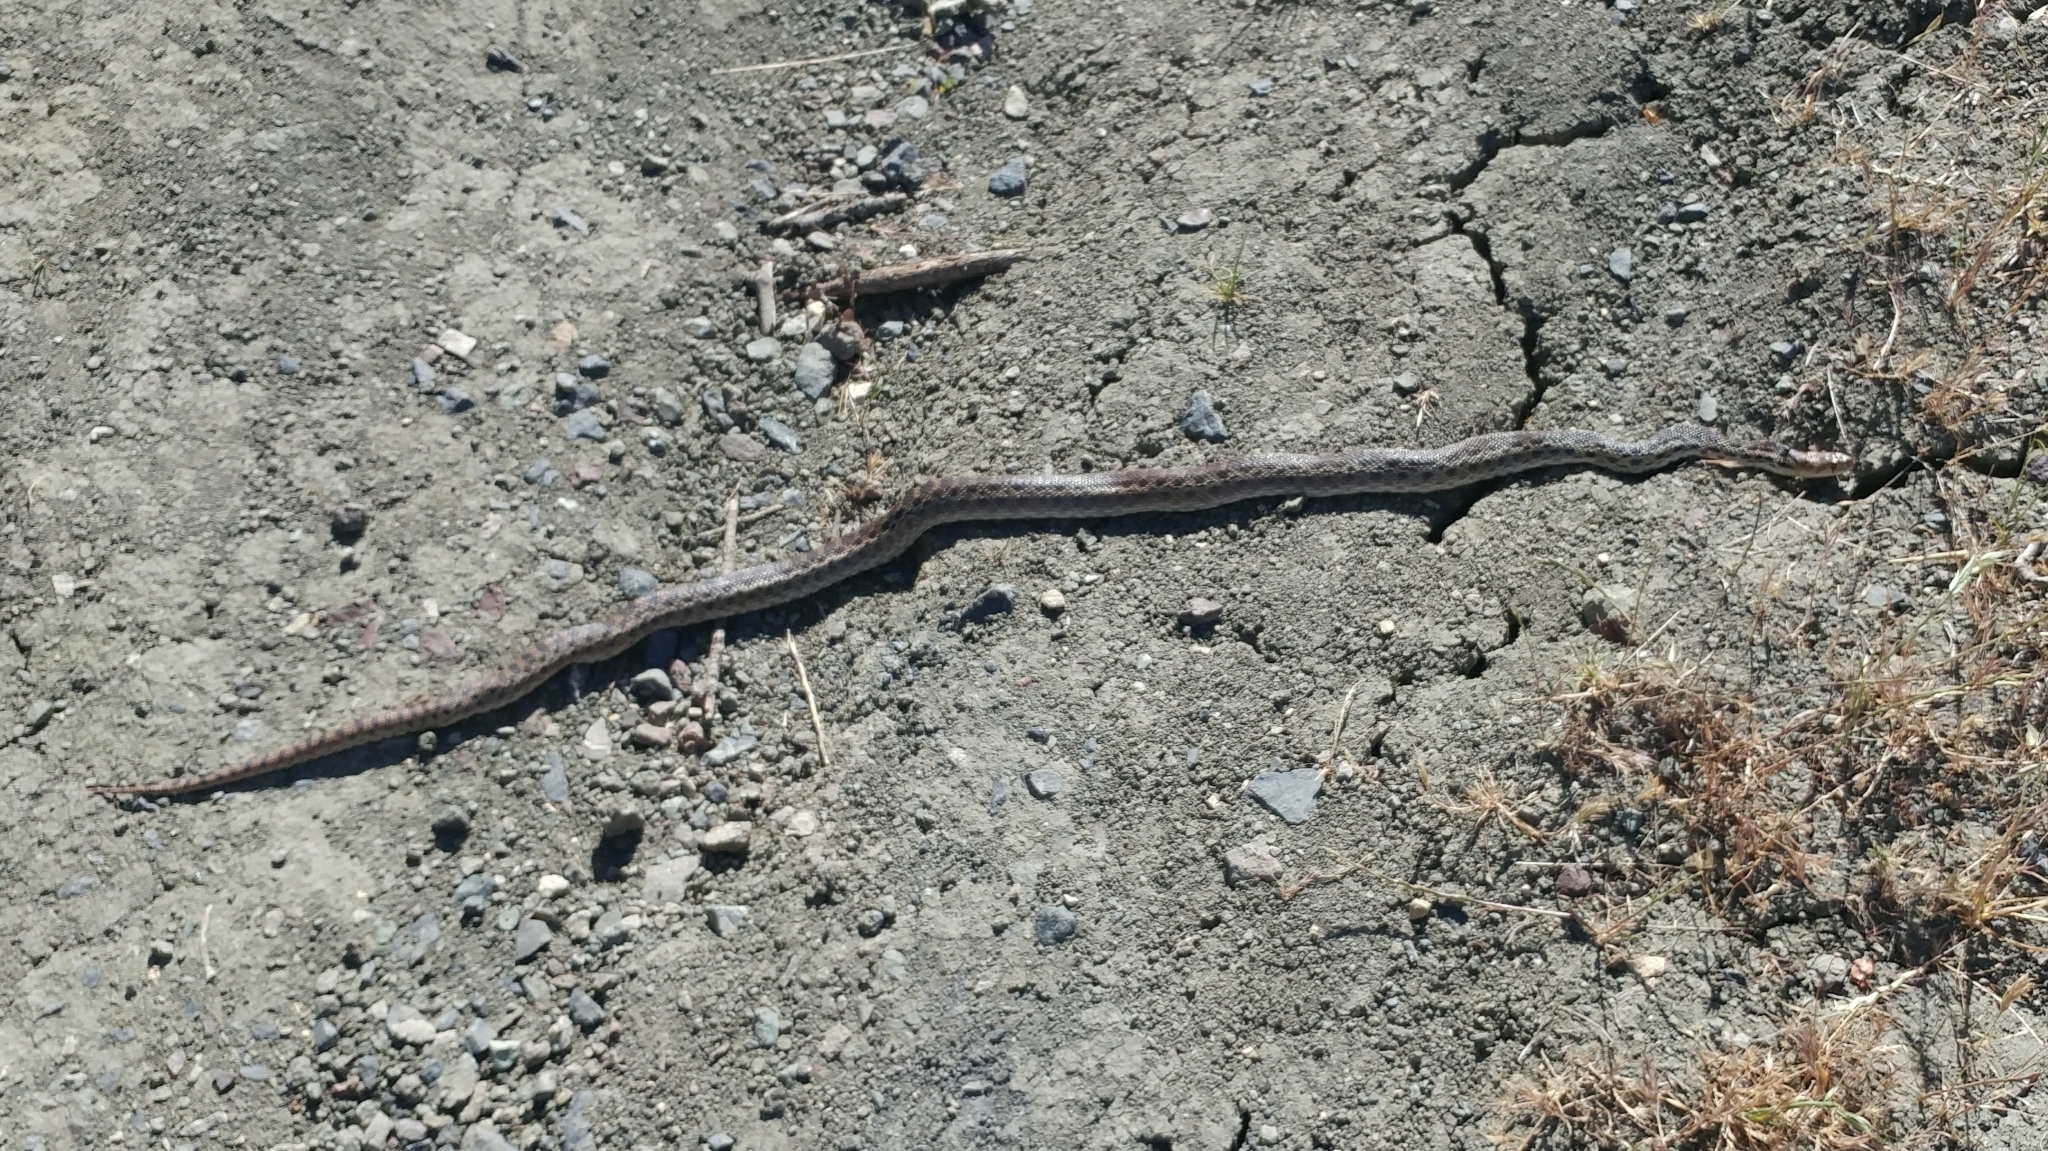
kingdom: Animalia
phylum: Chordata
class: Squamata
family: Colubridae
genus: Pituophis
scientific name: Pituophis catenifer
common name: Gopher snake
